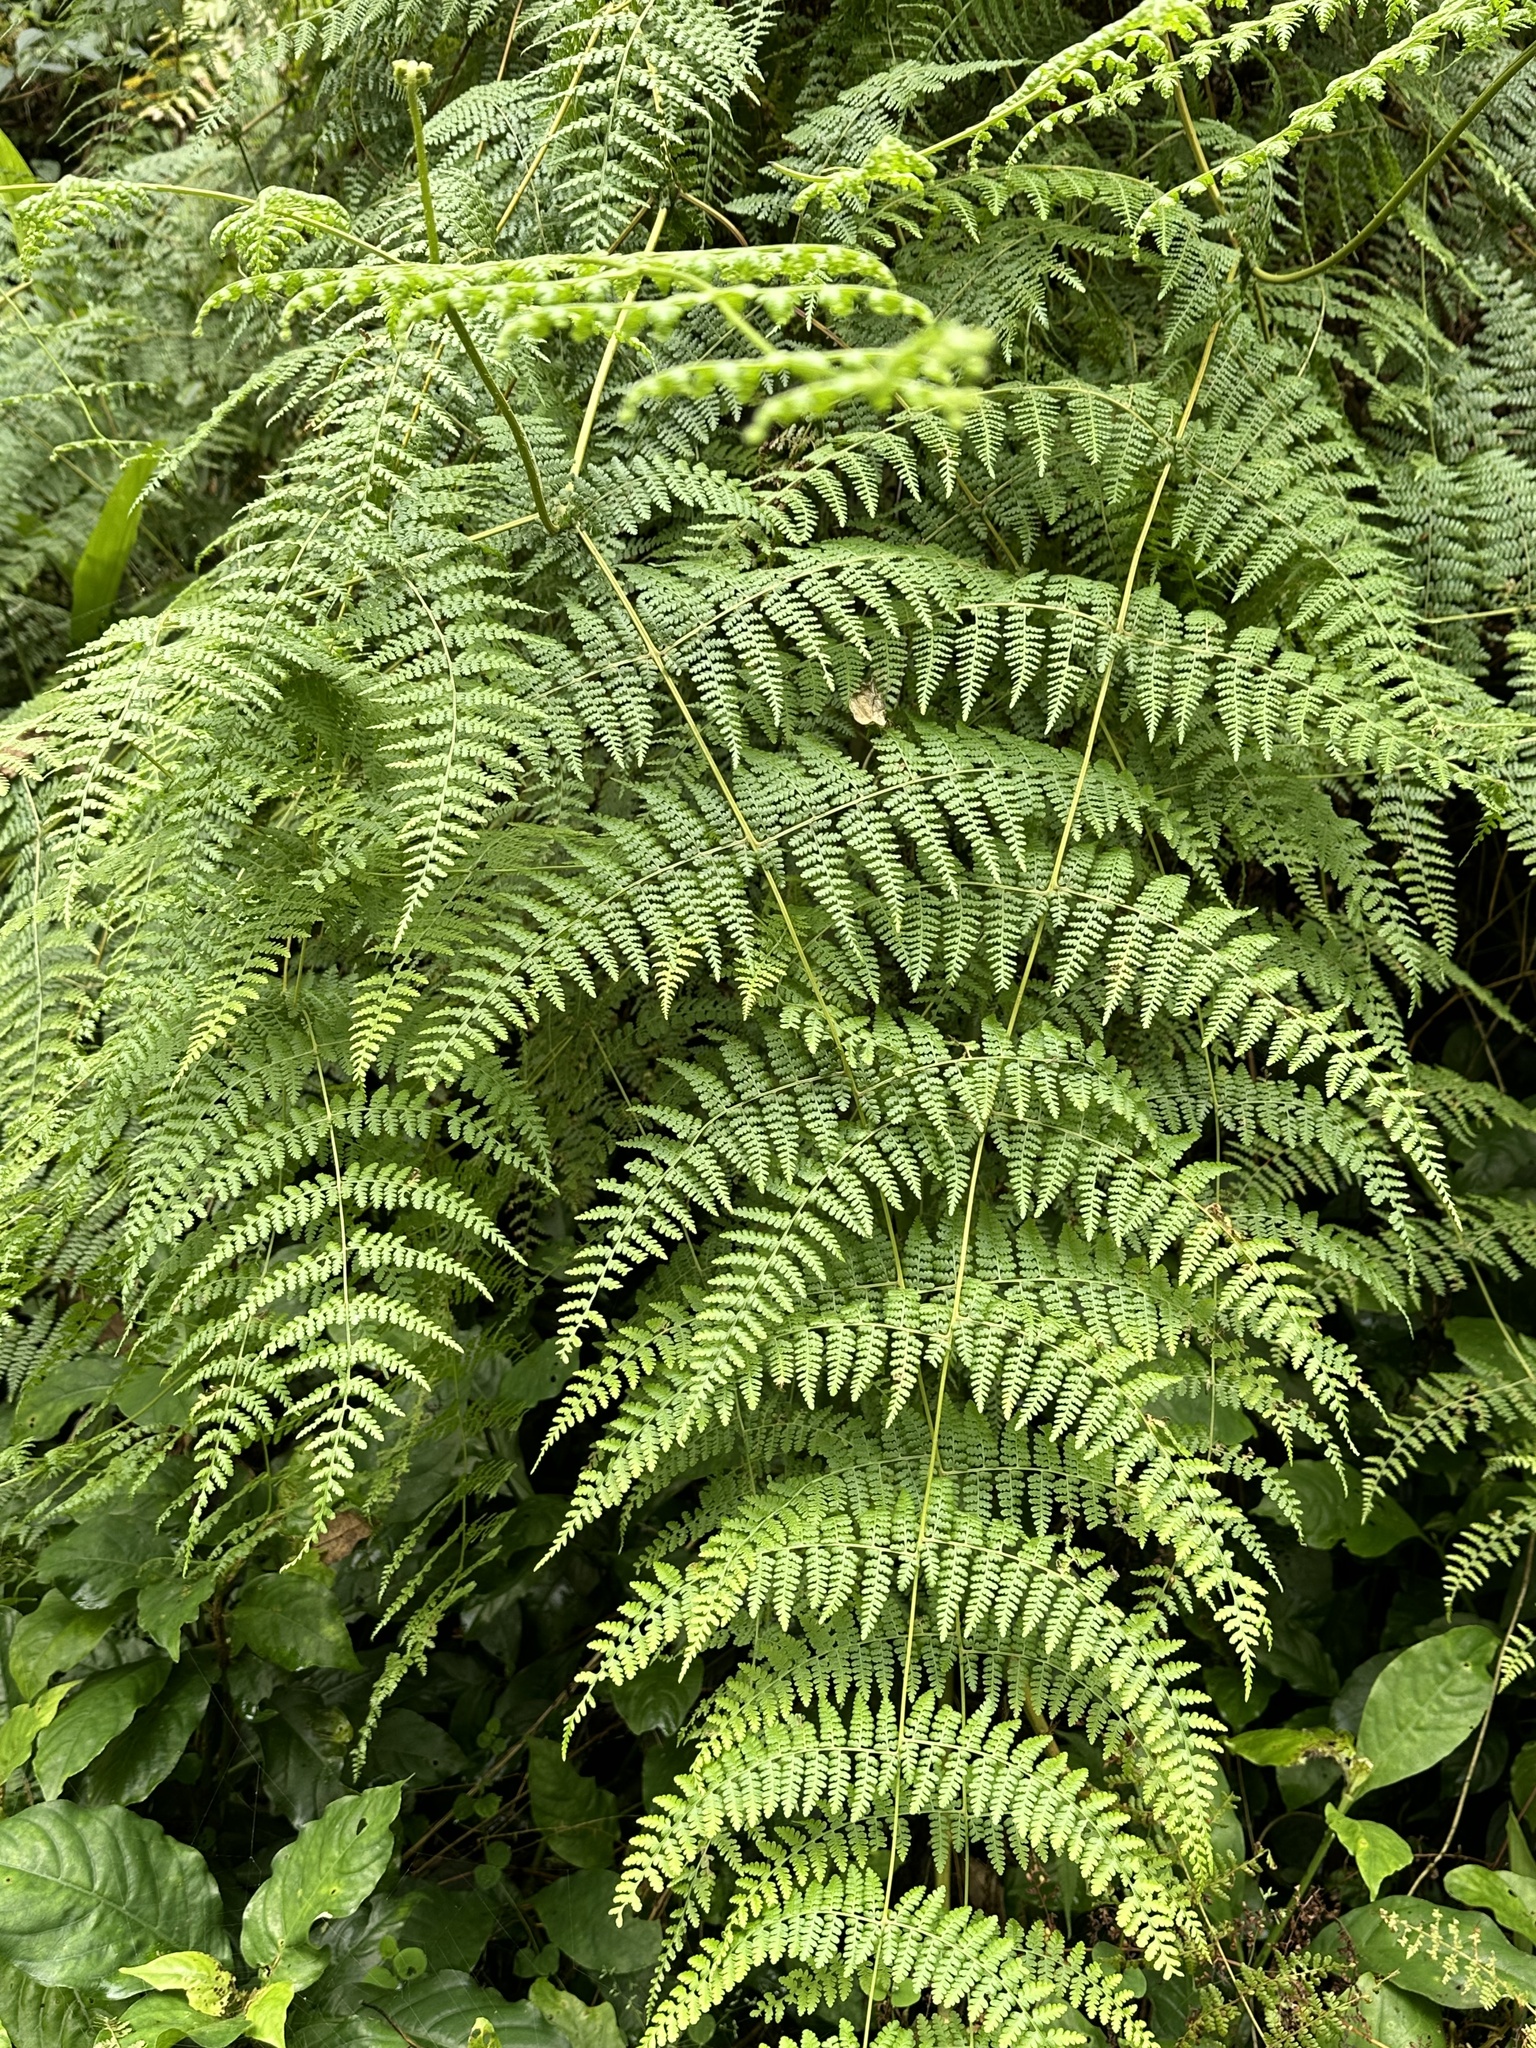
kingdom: Plantae
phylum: Tracheophyta
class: Polypodiopsida
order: Polypodiales
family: Dennstaedtiaceae
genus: Dennstaedtia
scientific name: Dennstaedtia scandens
